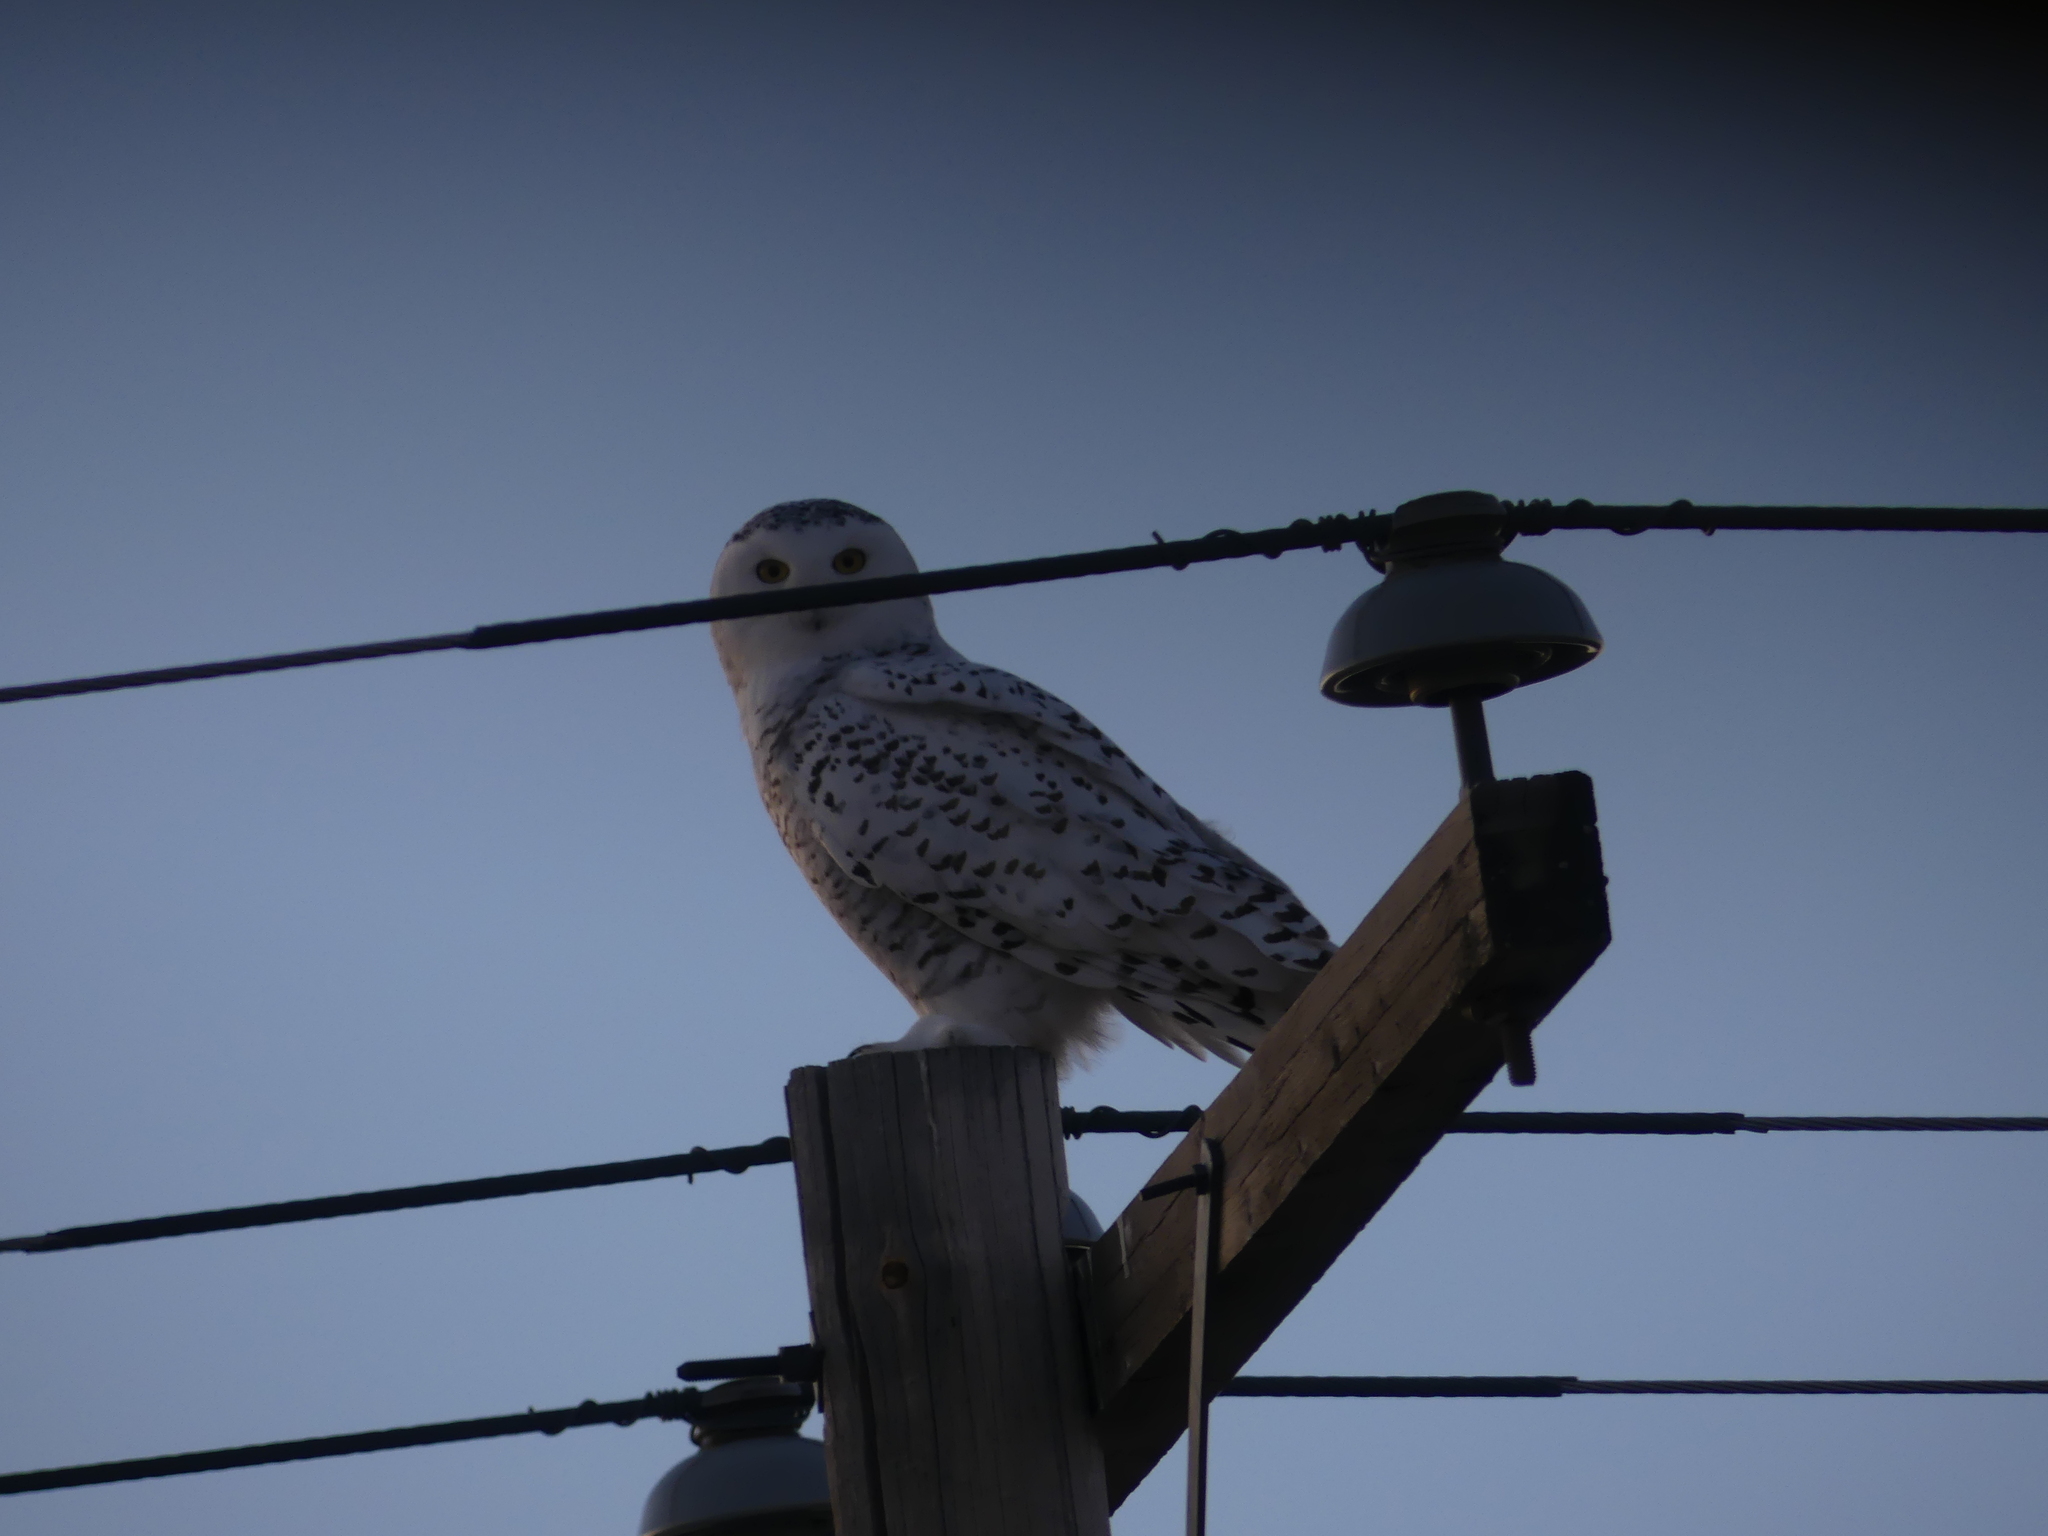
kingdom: Animalia
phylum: Chordata
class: Aves
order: Strigiformes
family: Strigidae
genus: Bubo
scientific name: Bubo scandiacus
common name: Snowy owl
